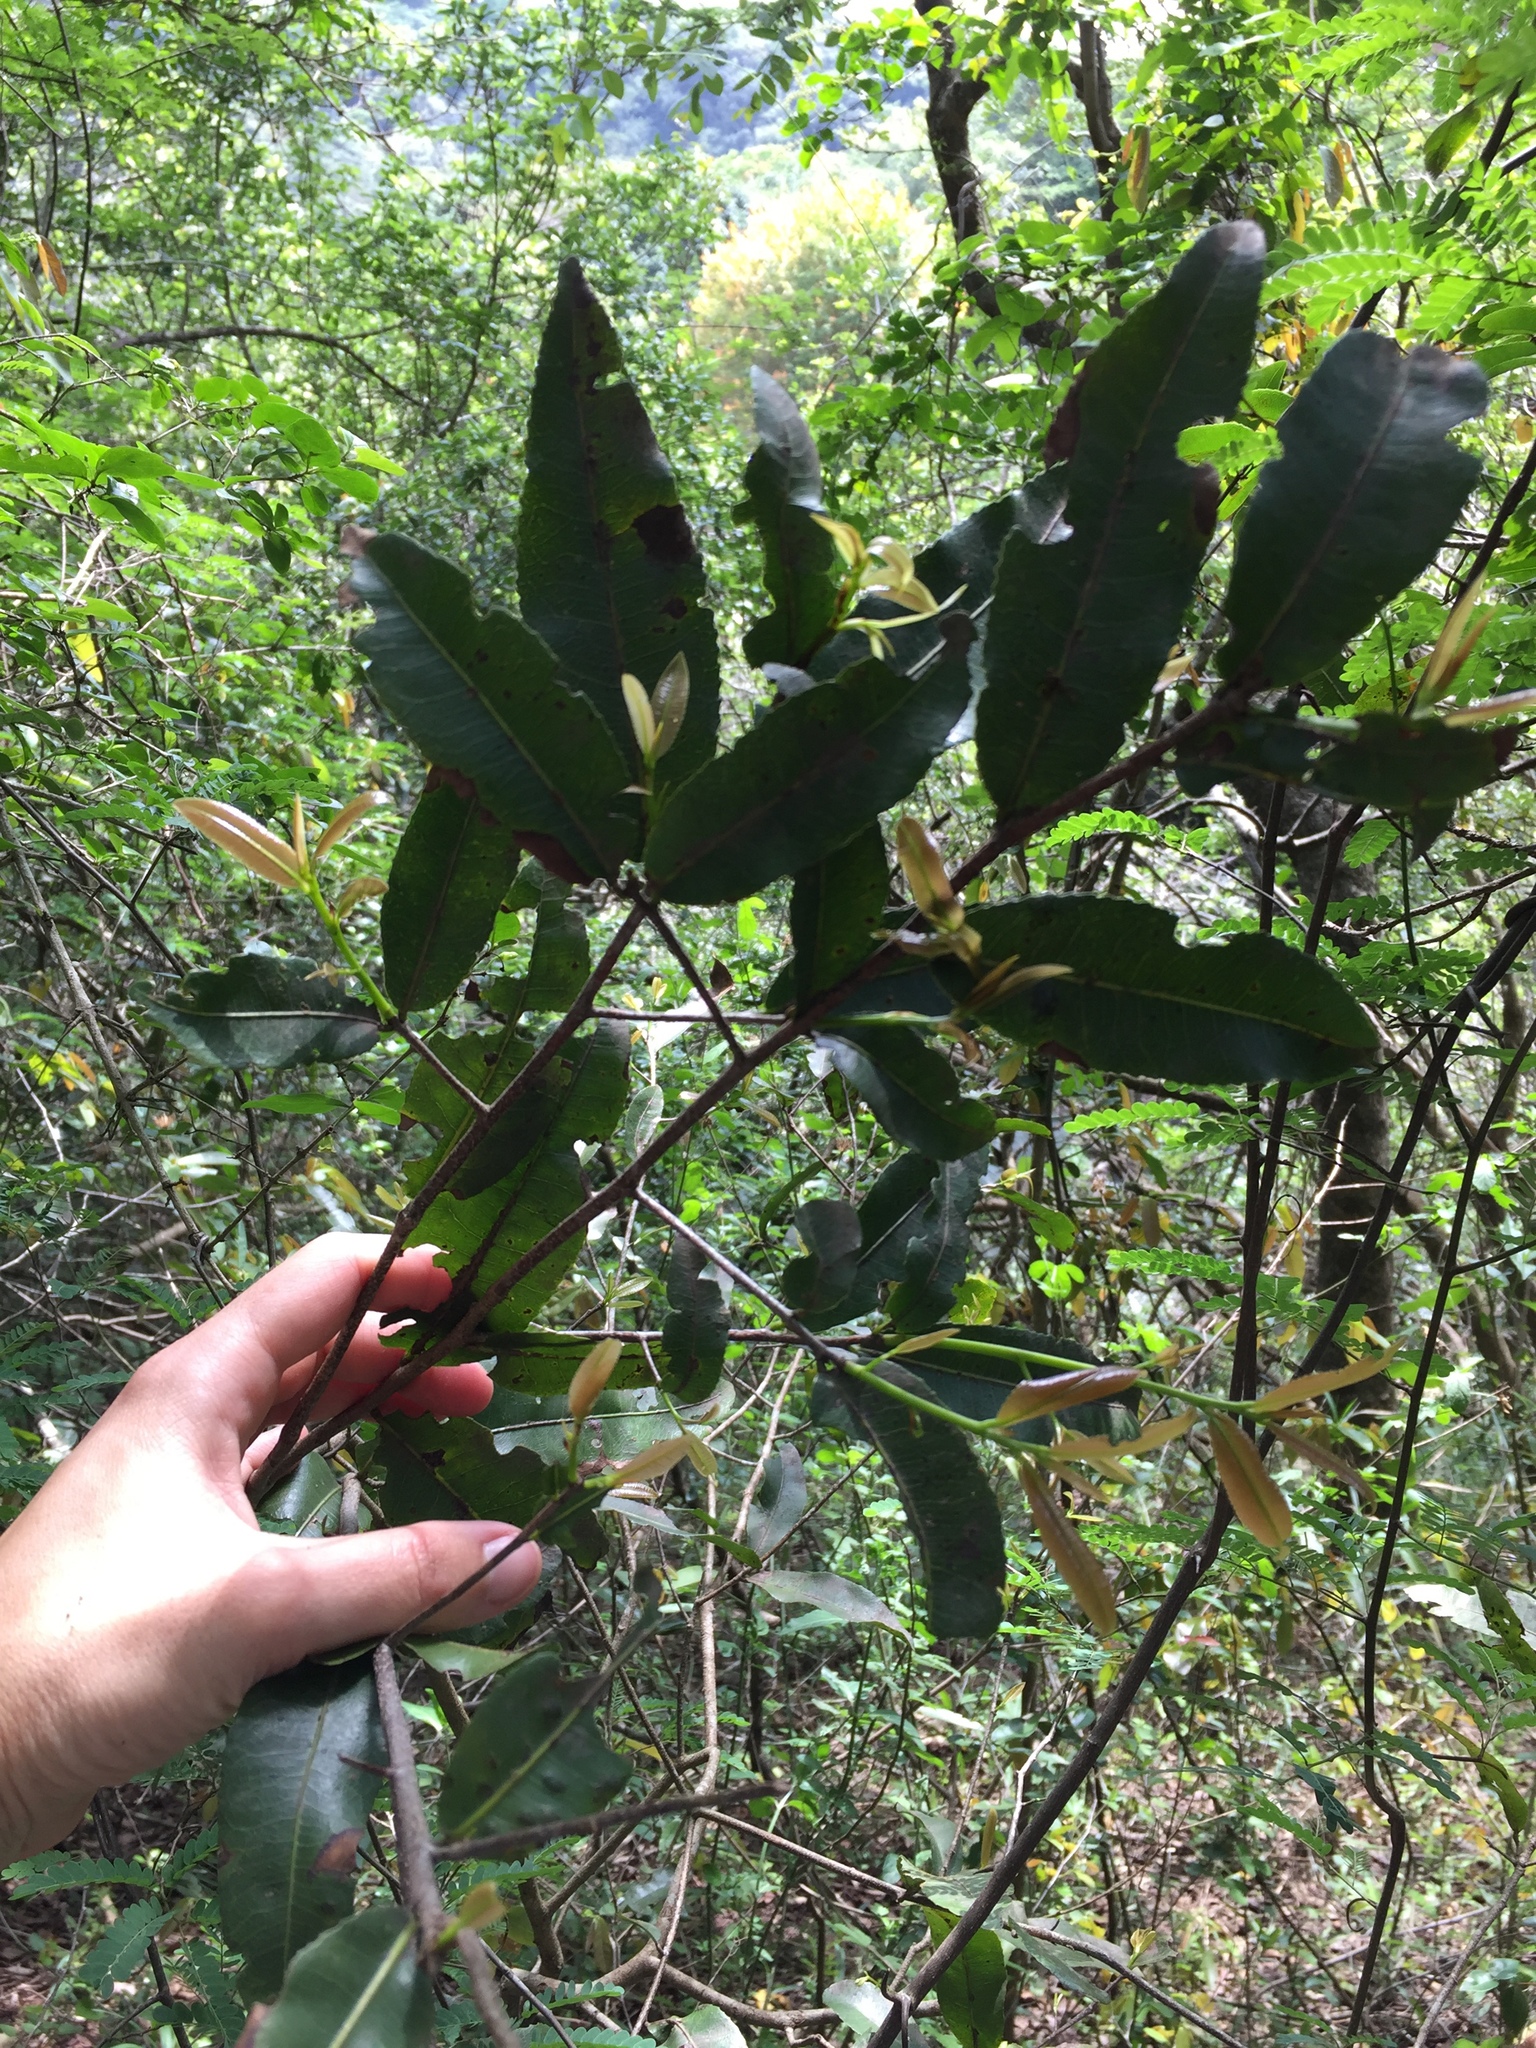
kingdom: Plantae
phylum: Tracheophyta
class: Magnoliopsida
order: Malpighiales
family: Ochnaceae
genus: Ochna
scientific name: Ochna arborea
